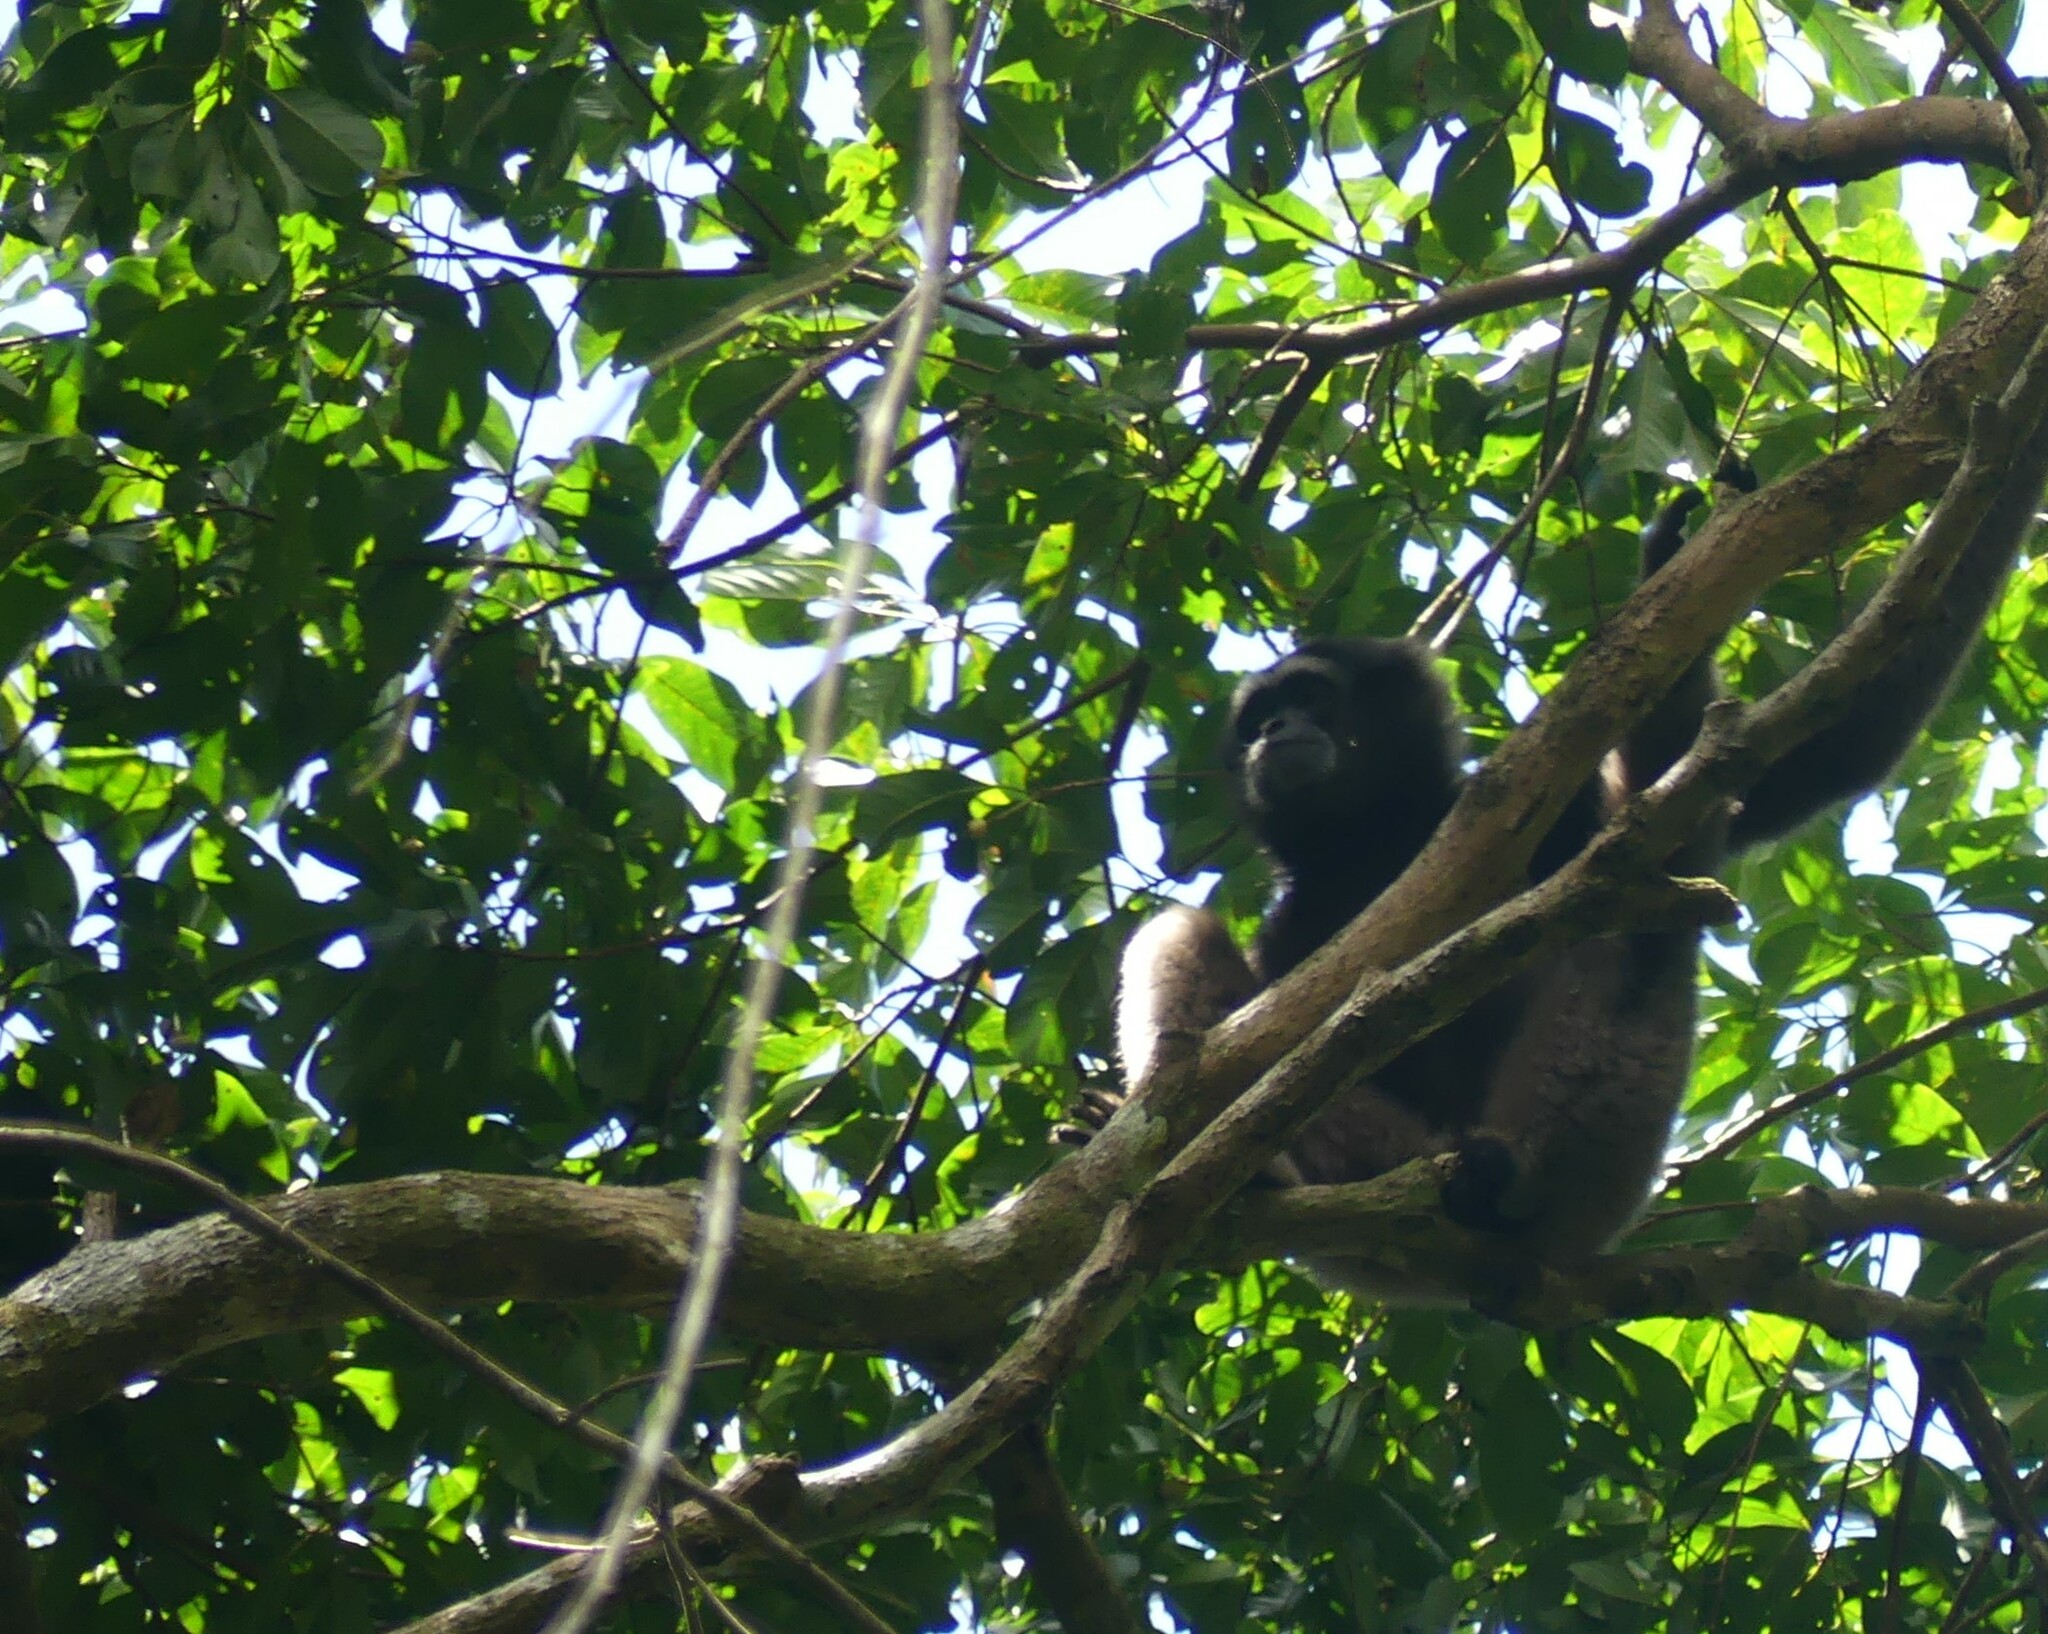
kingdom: Animalia
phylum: Chordata
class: Mammalia
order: Primates
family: Hylobatidae
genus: Hylobates
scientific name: Hylobates funereus
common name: East bornean gray gibbon
